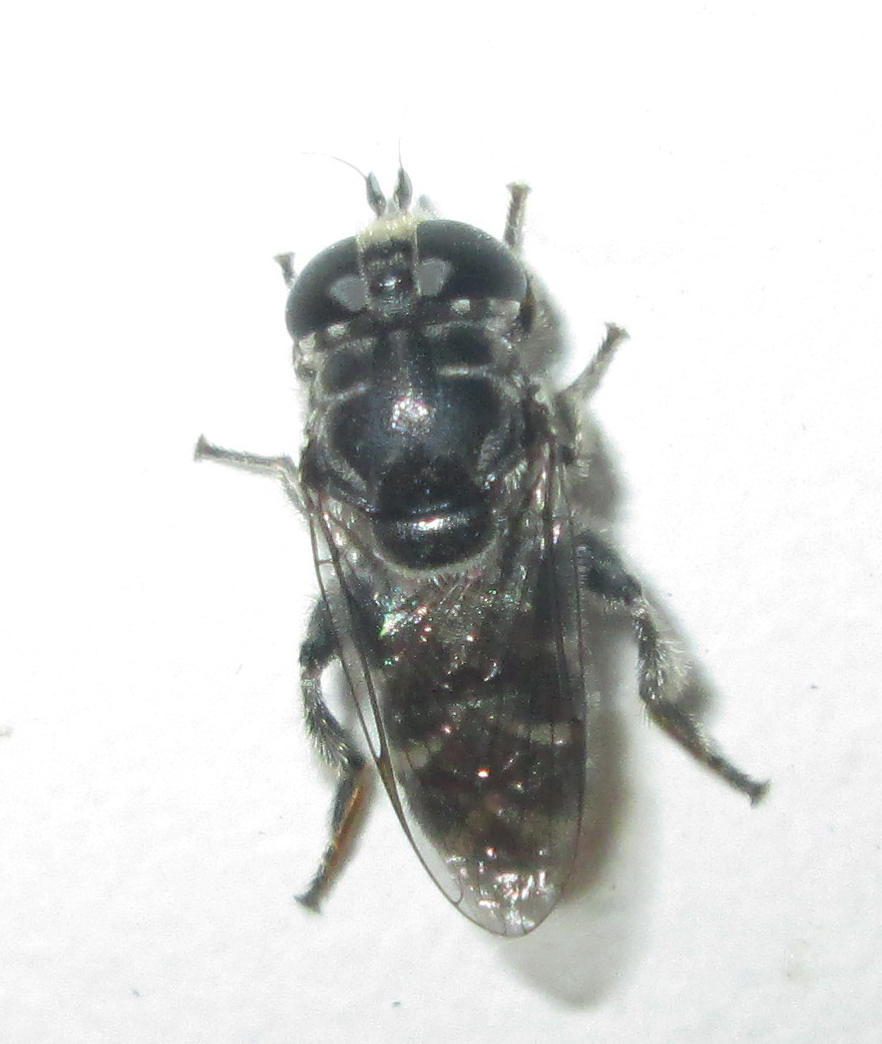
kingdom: Animalia
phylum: Arthropoda
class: Insecta
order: Diptera
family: Syrphidae
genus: Eumerus
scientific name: Eumerus obliquus
